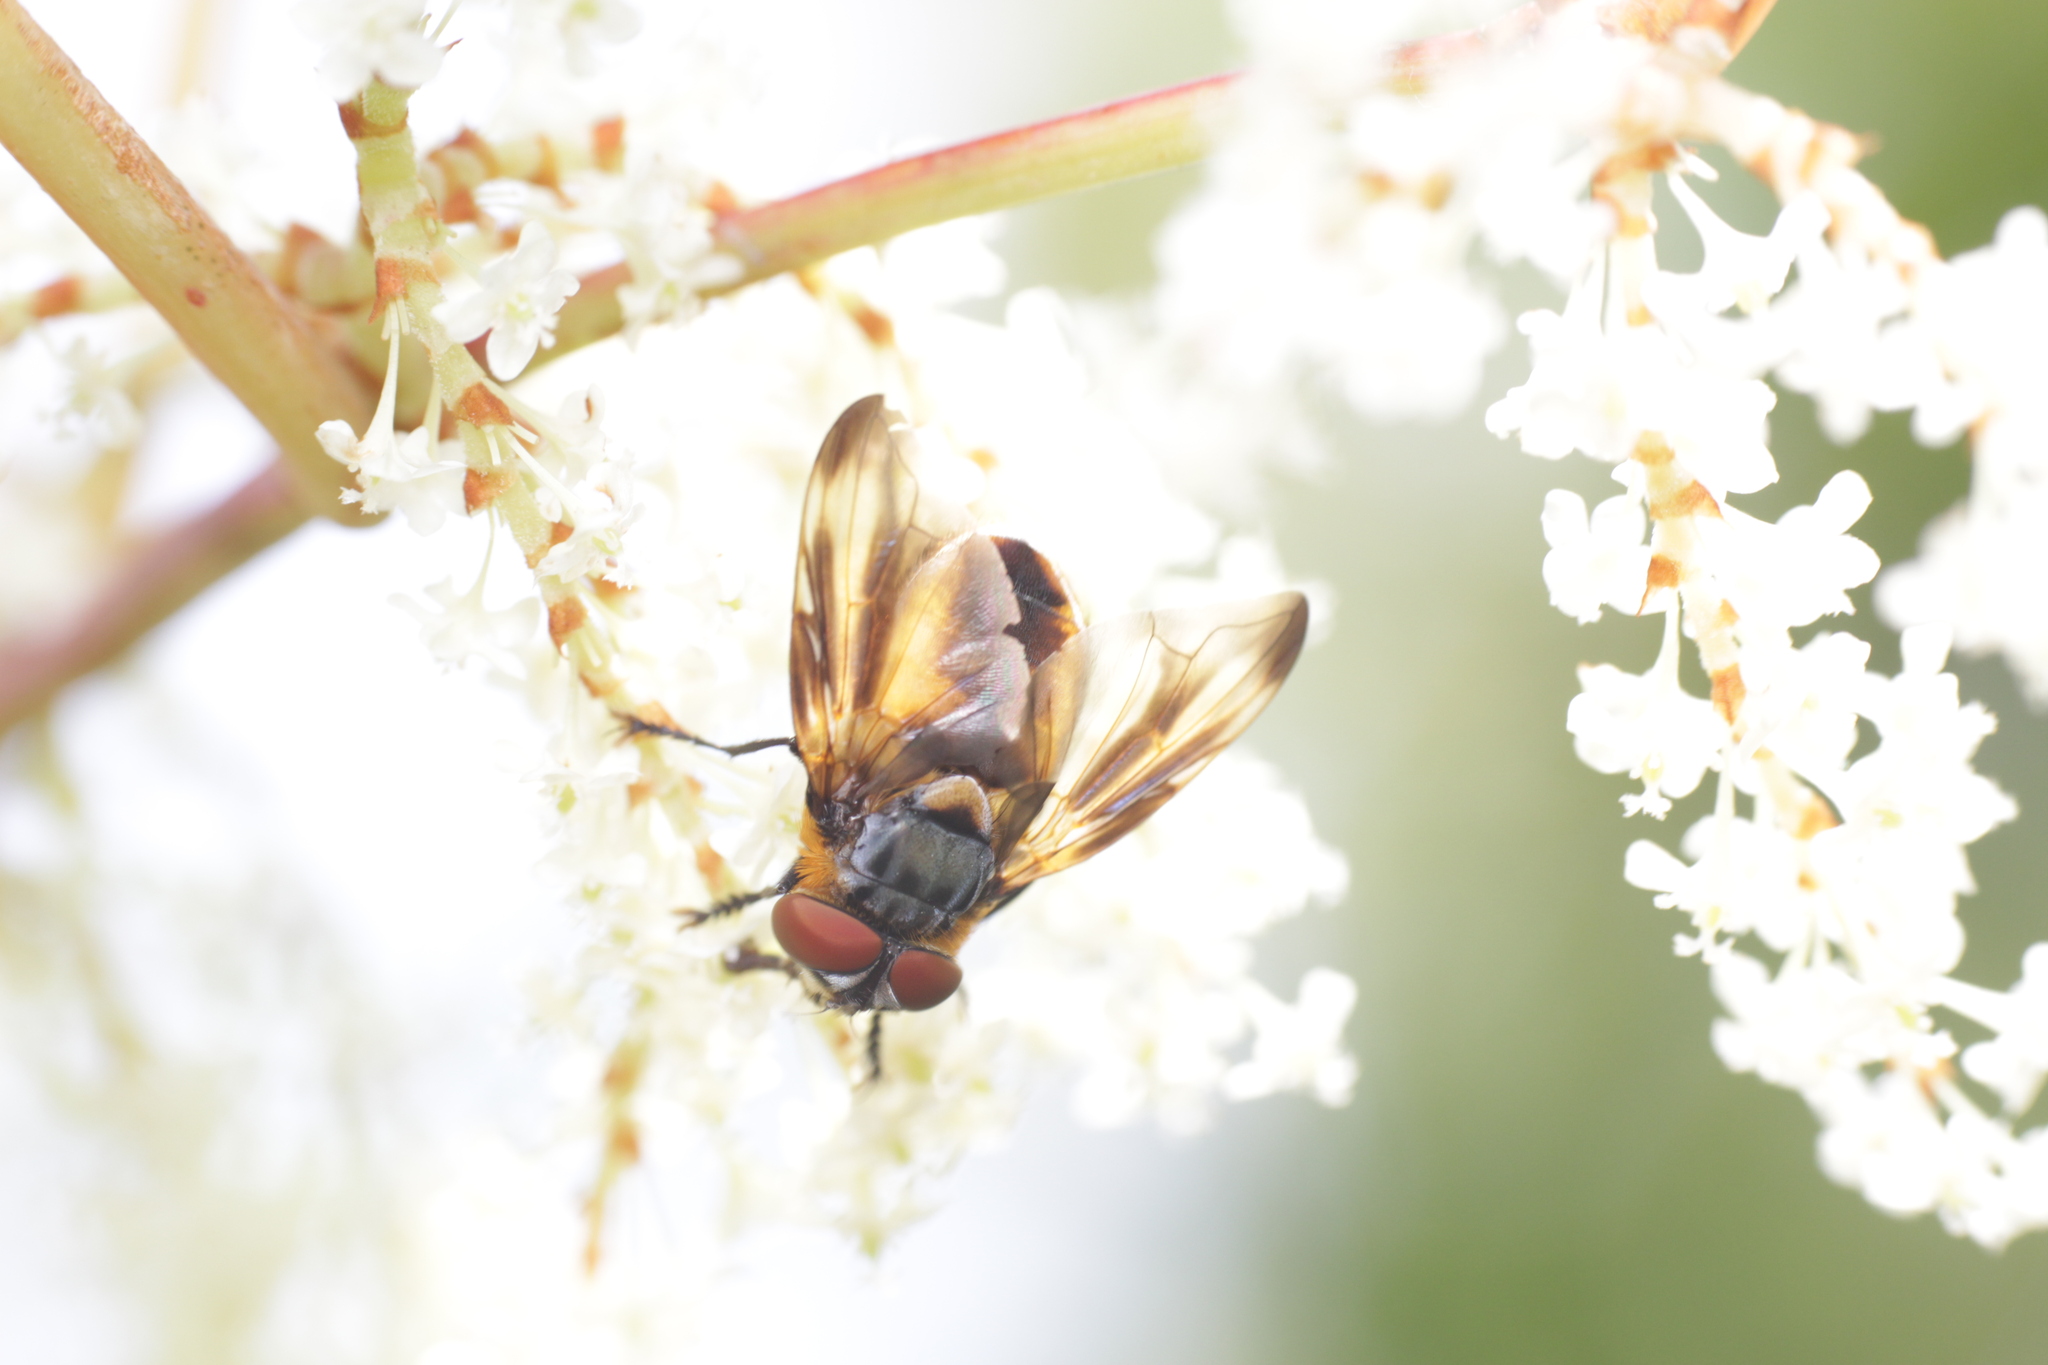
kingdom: Animalia
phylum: Arthropoda
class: Insecta
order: Diptera
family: Tachinidae
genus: Phasia
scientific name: Phasia hemiptera
